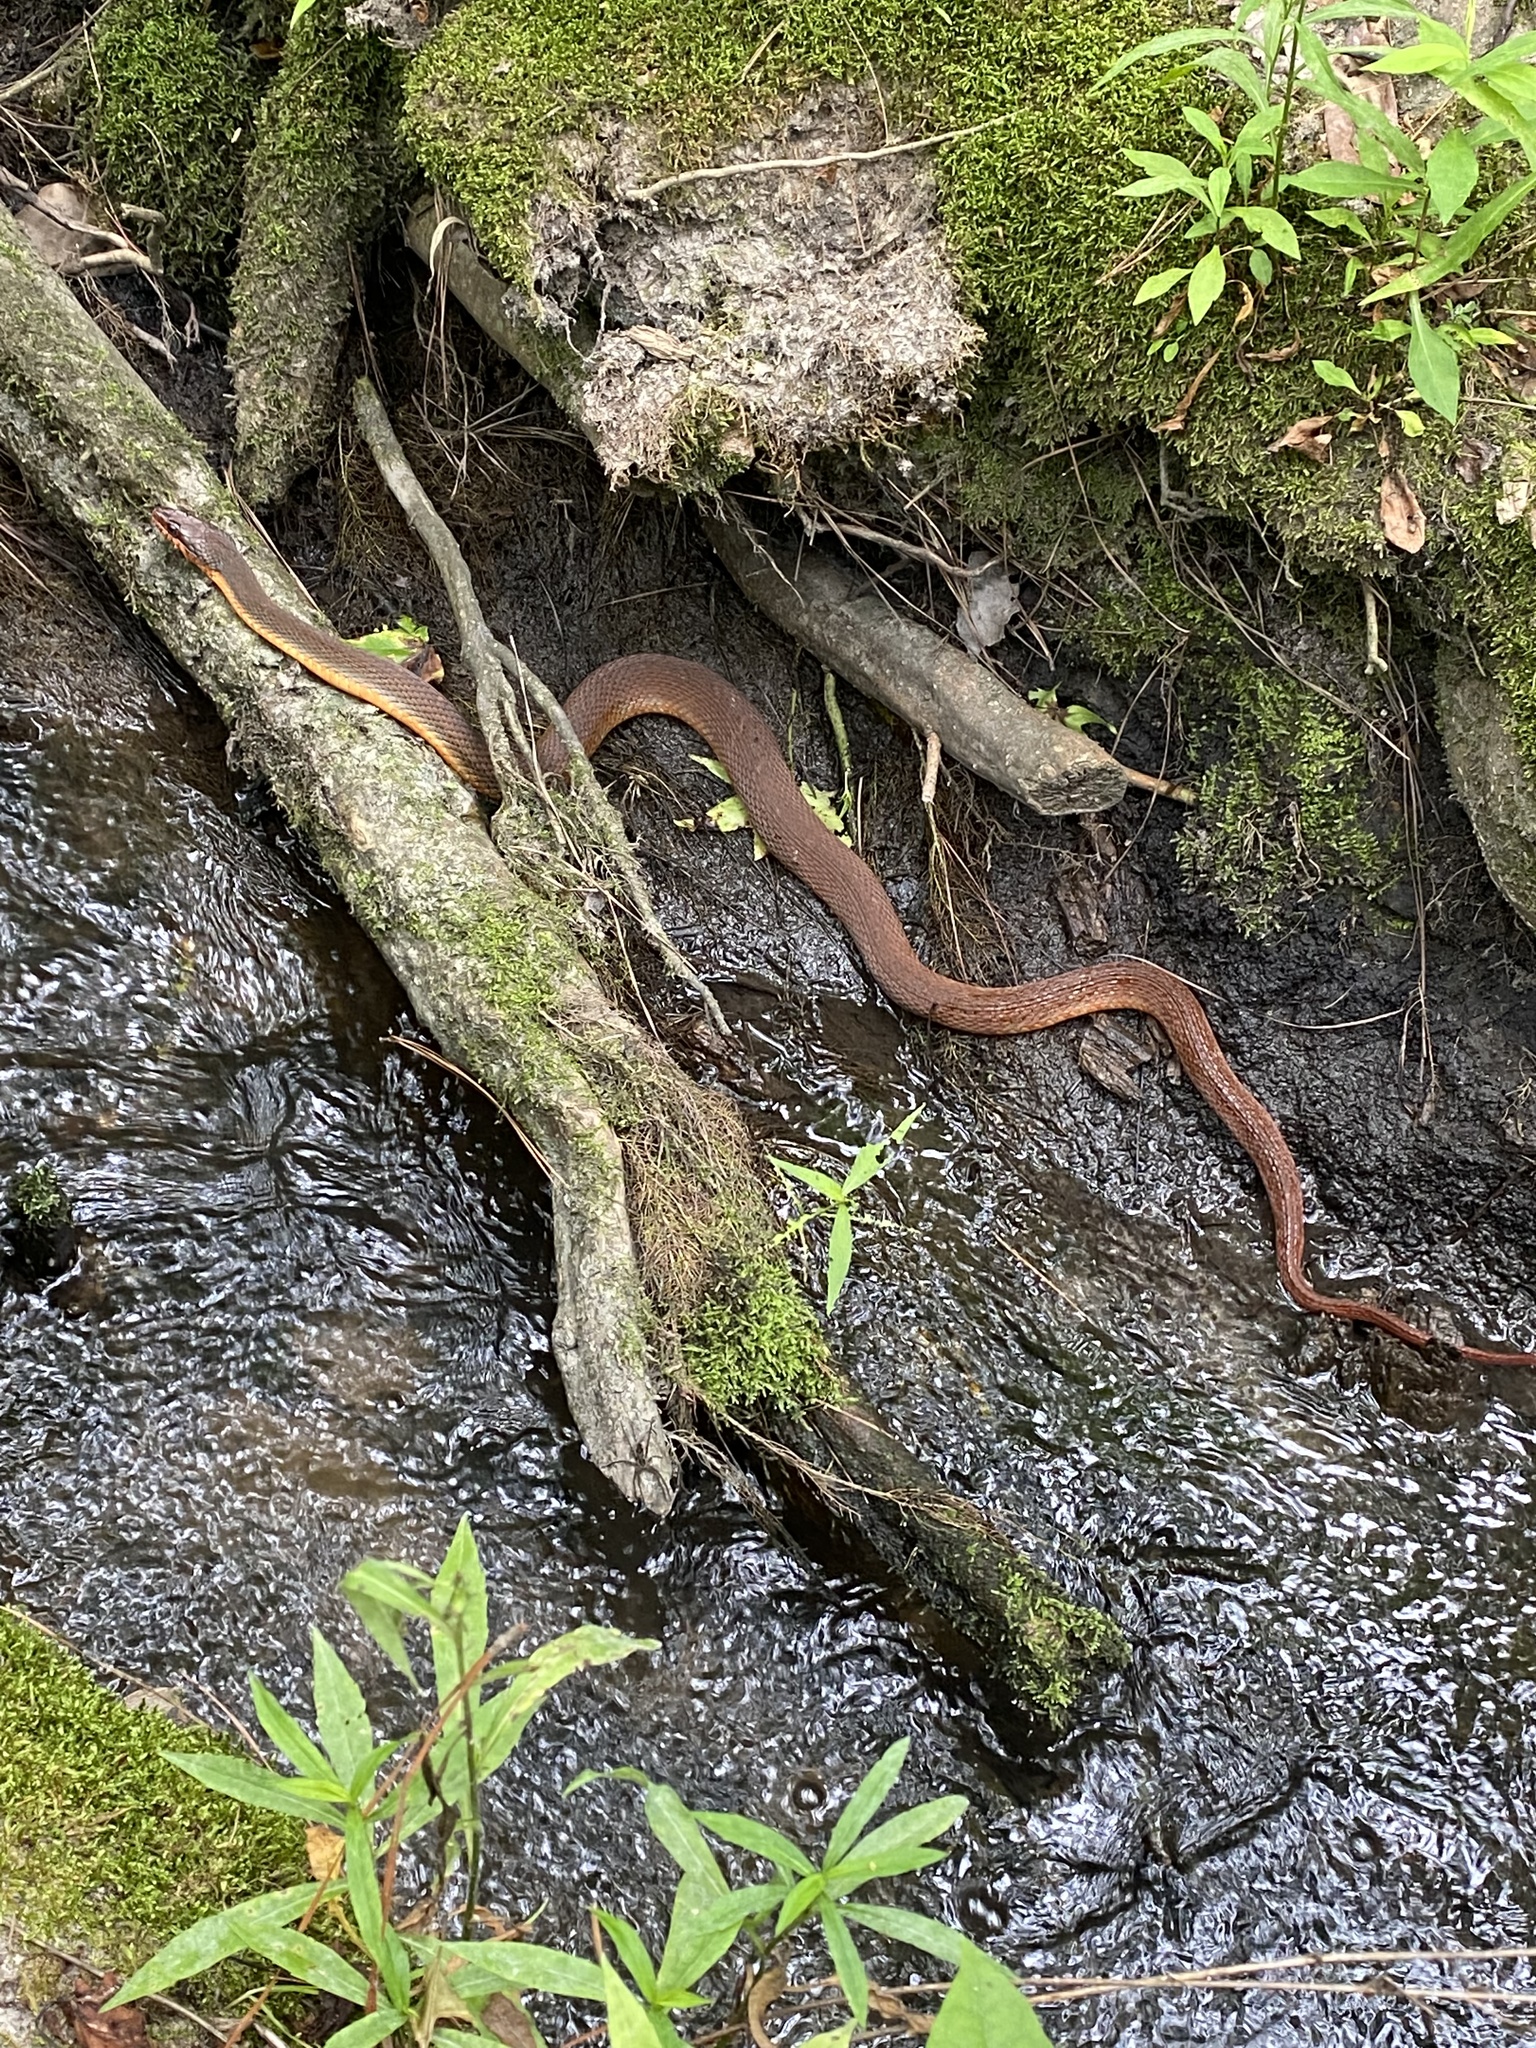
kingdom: Animalia
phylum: Chordata
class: Squamata
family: Colubridae
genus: Nerodia
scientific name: Nerodia erythrogaster
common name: Plainbelly water snake
